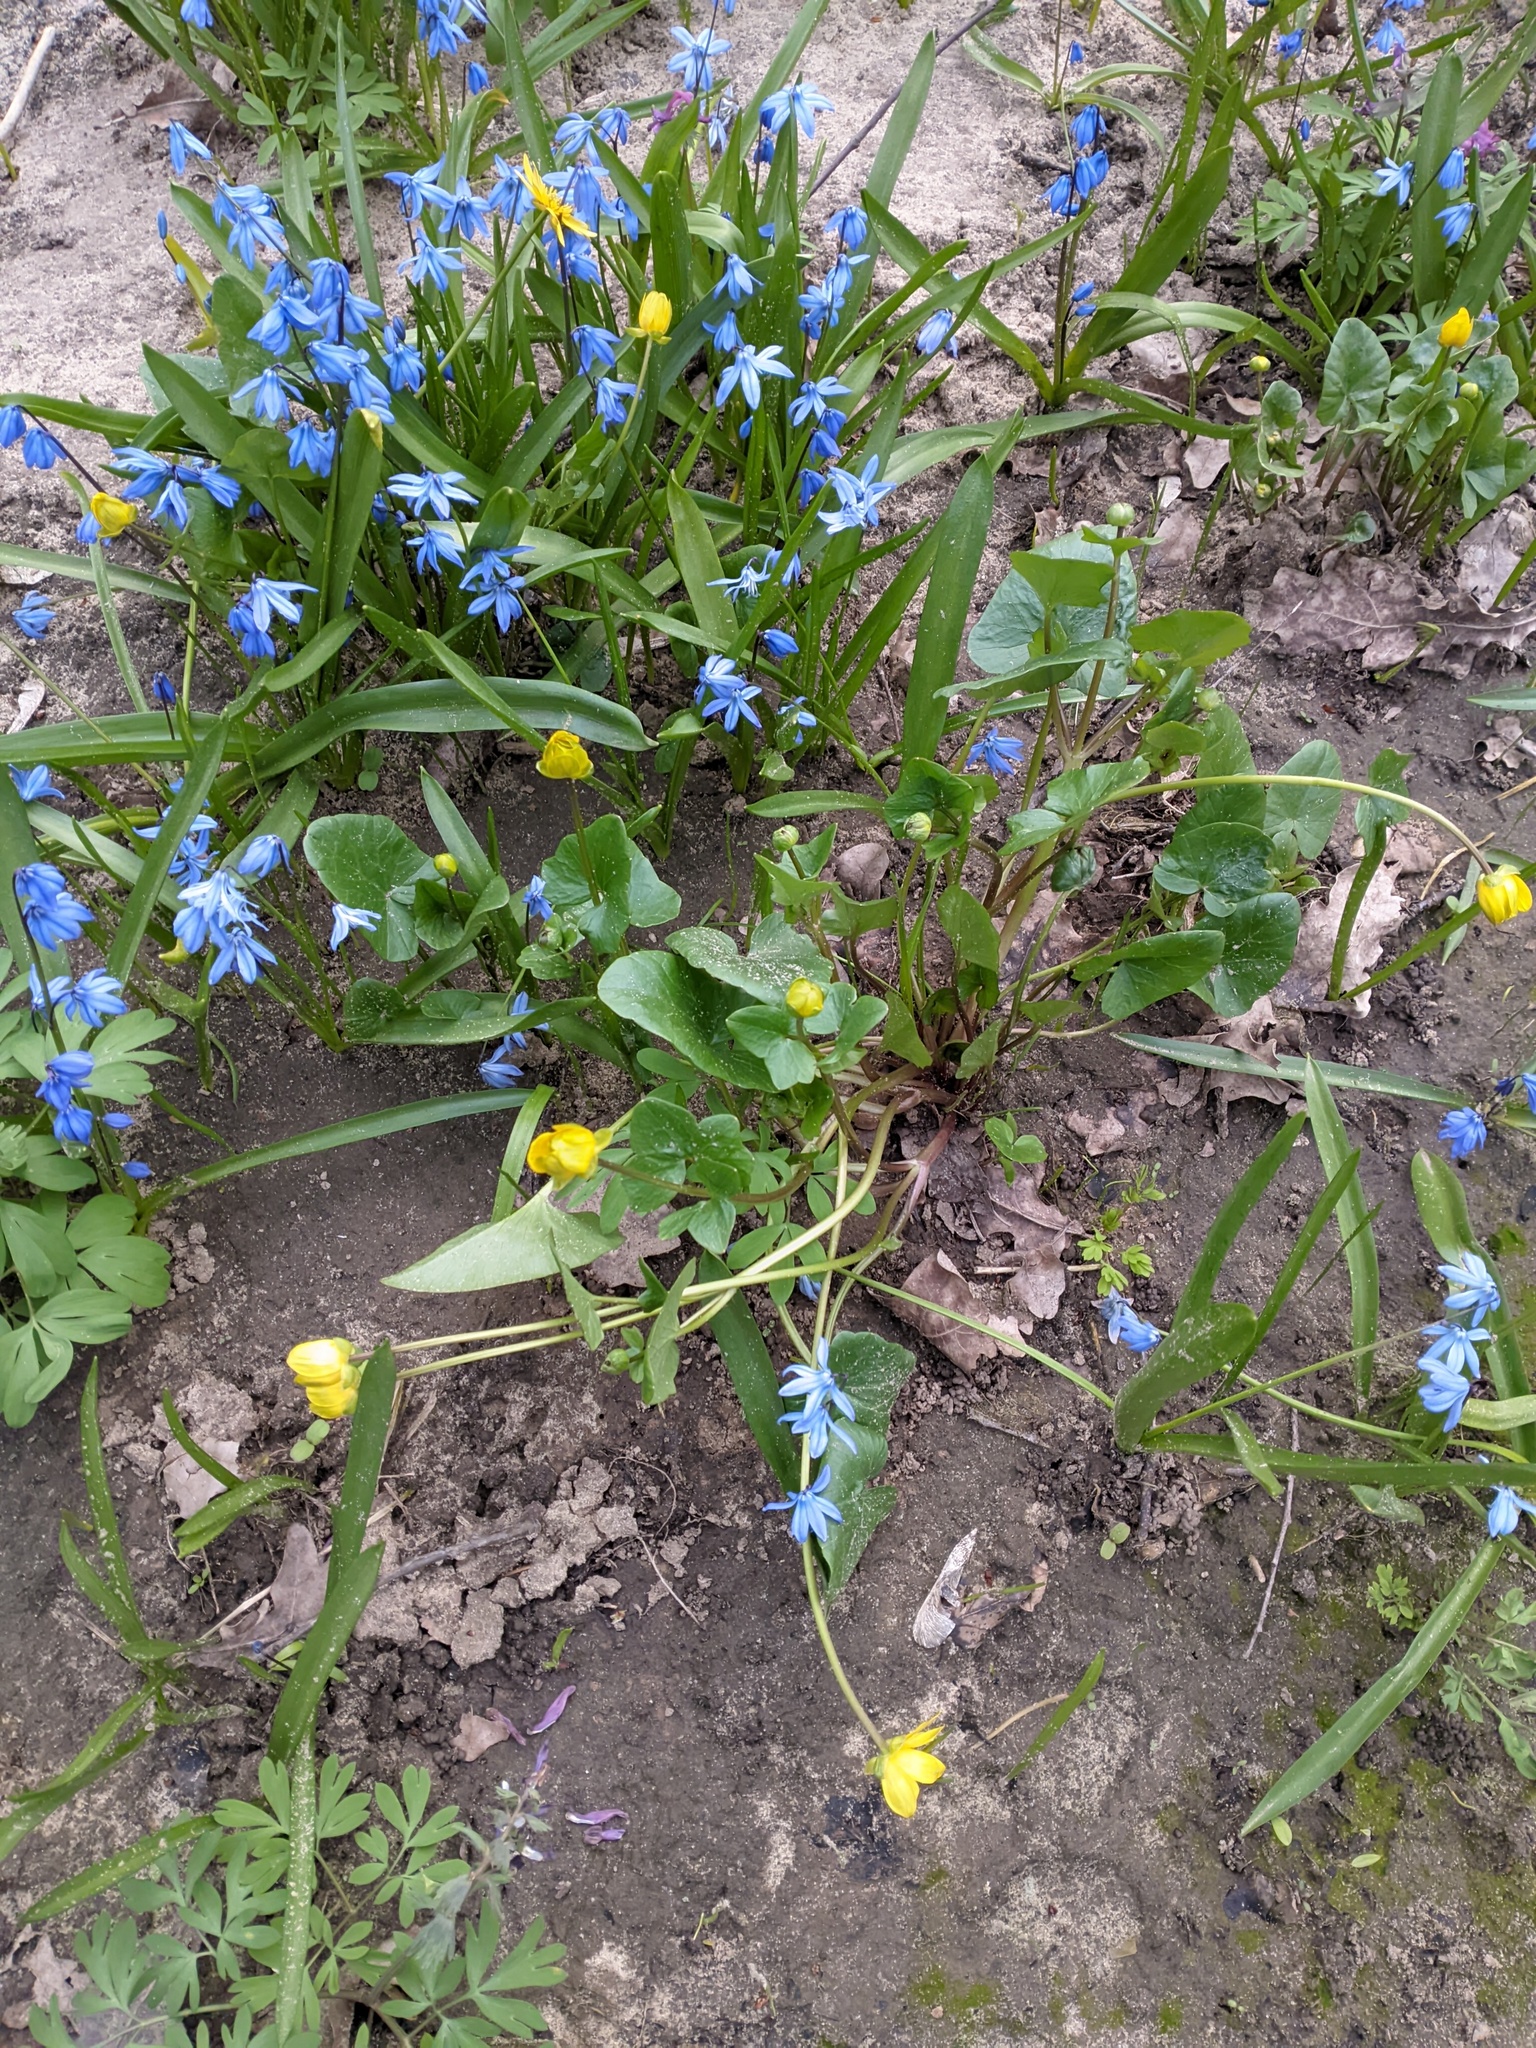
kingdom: Plantae
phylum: Tracheophyta
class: Magnoliopsida
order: Ranunculales
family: Ranunculaceae
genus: Ficaria
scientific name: Ficaria verna
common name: Lesser celandine
